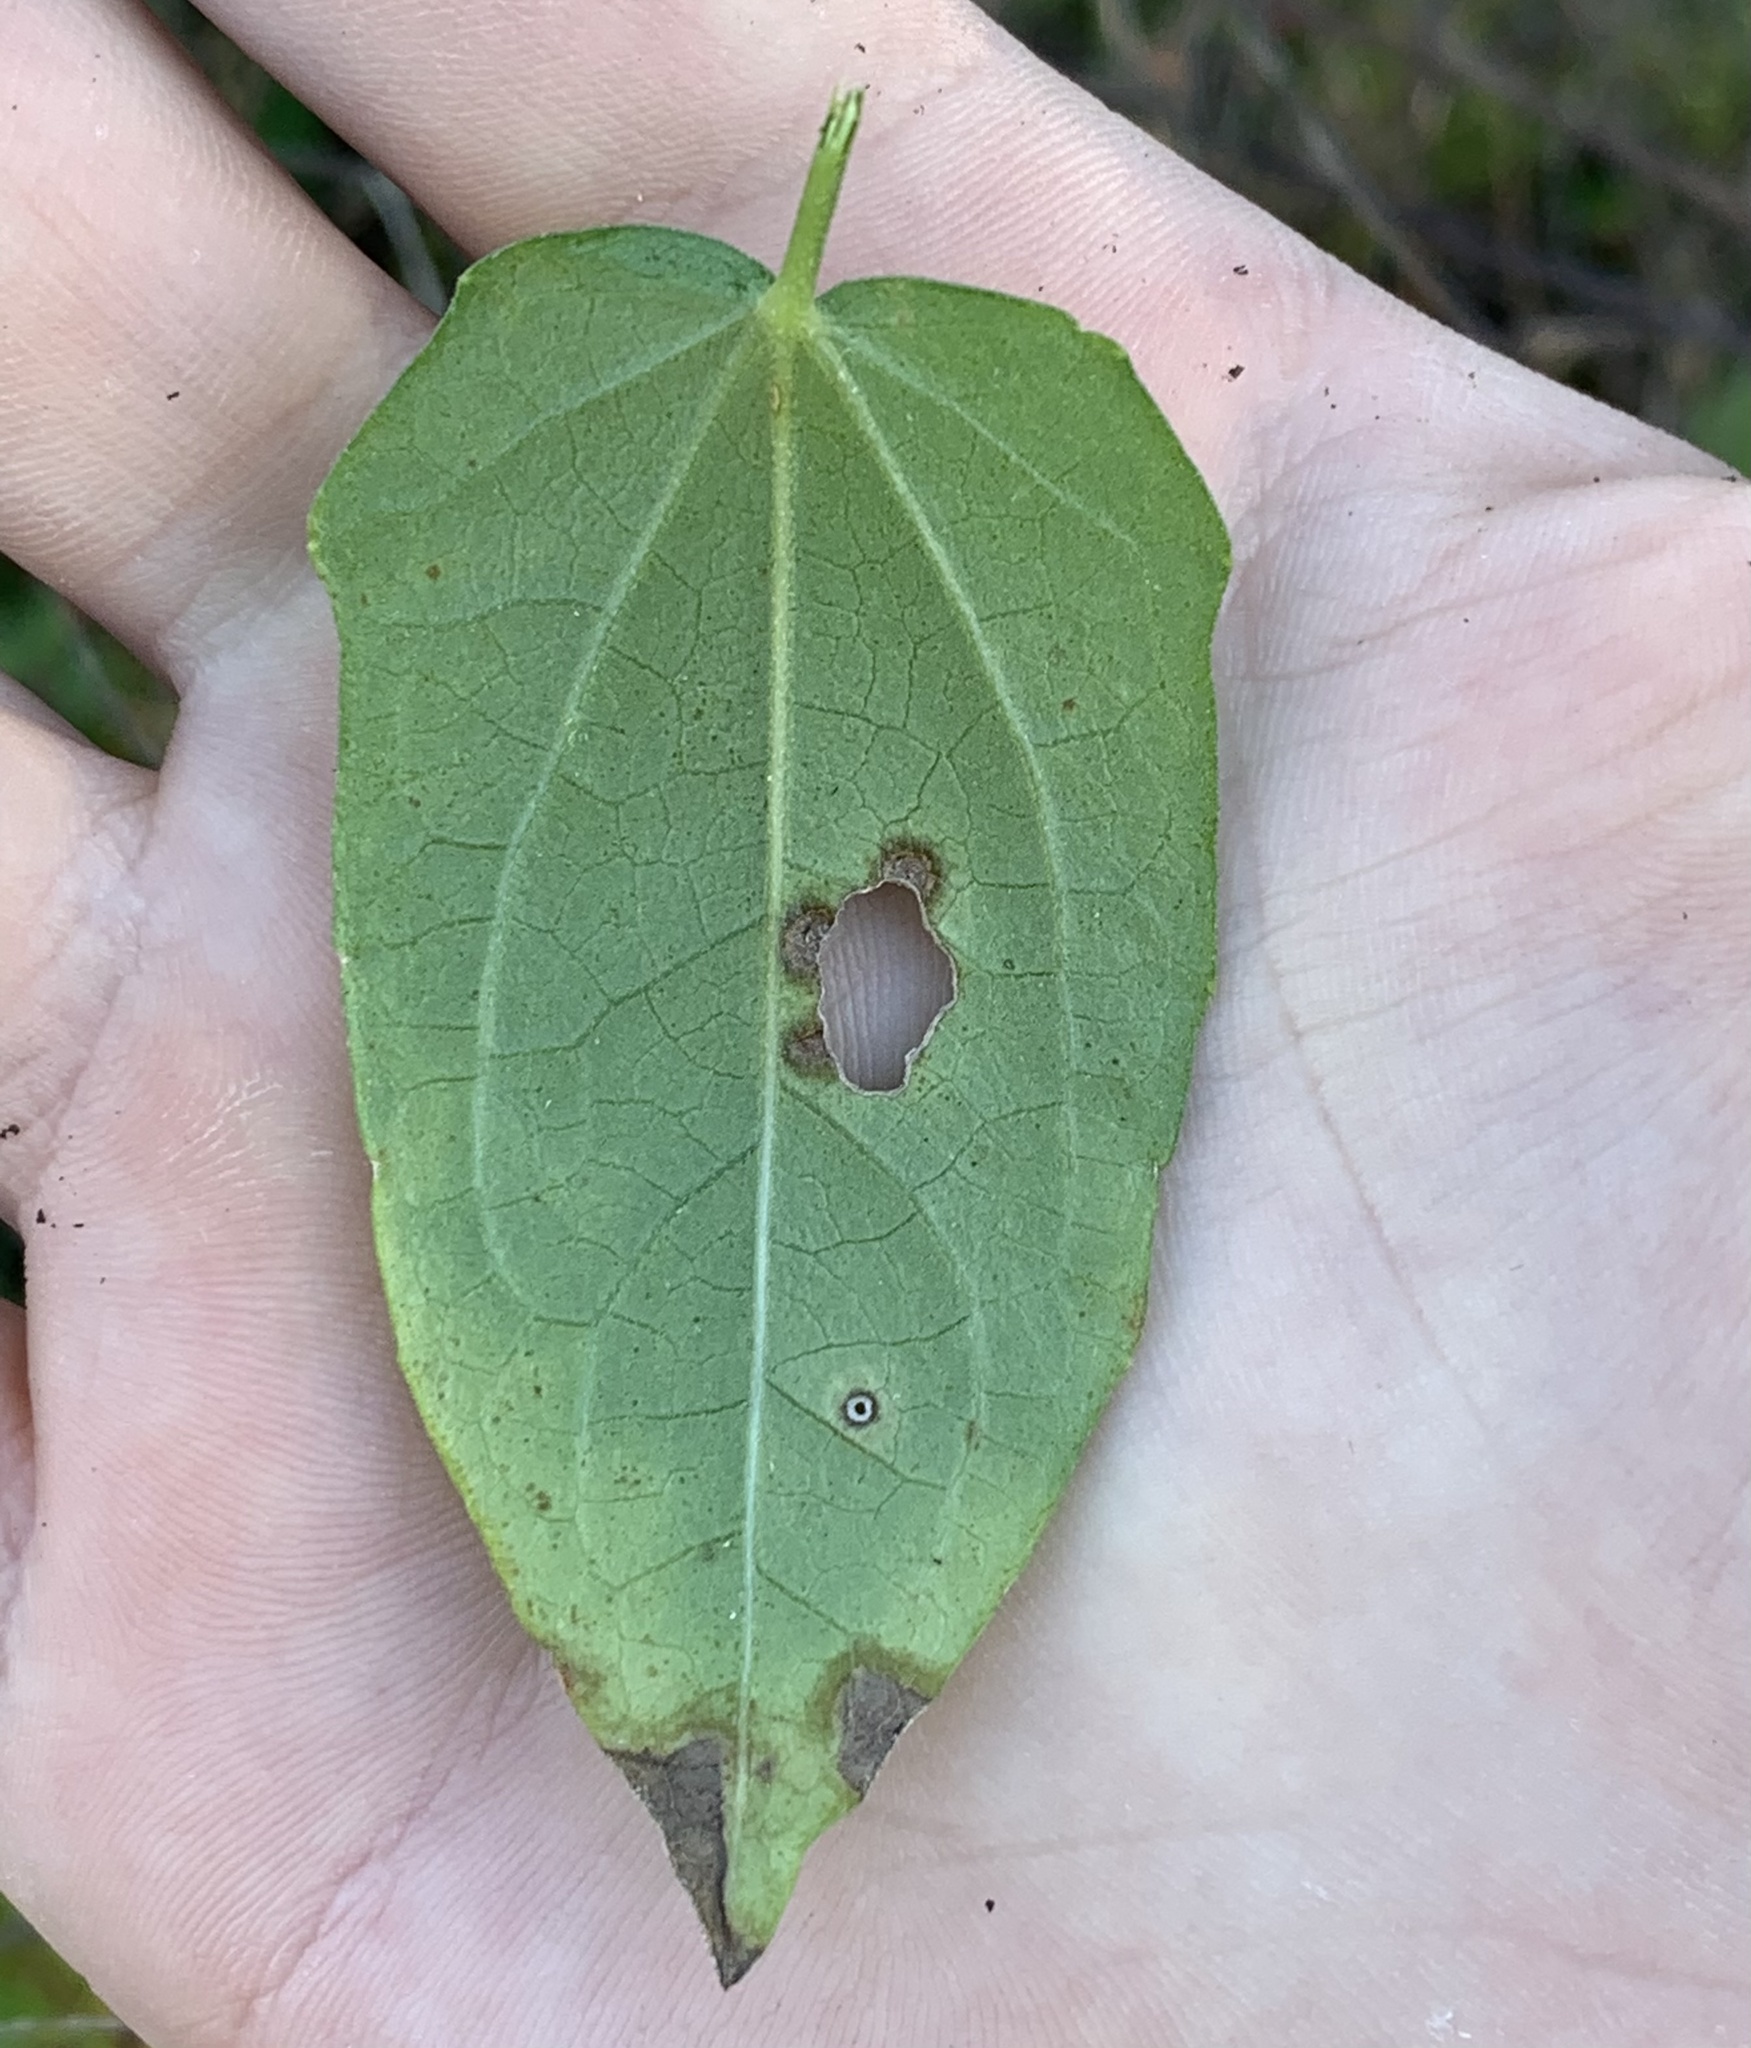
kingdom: Plantae
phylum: Tracheophyta
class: Magnoliopsida
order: Lamiales
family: Acanthaceae
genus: Thunbergia
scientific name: Thunbergia fragrans
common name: Whitelady
